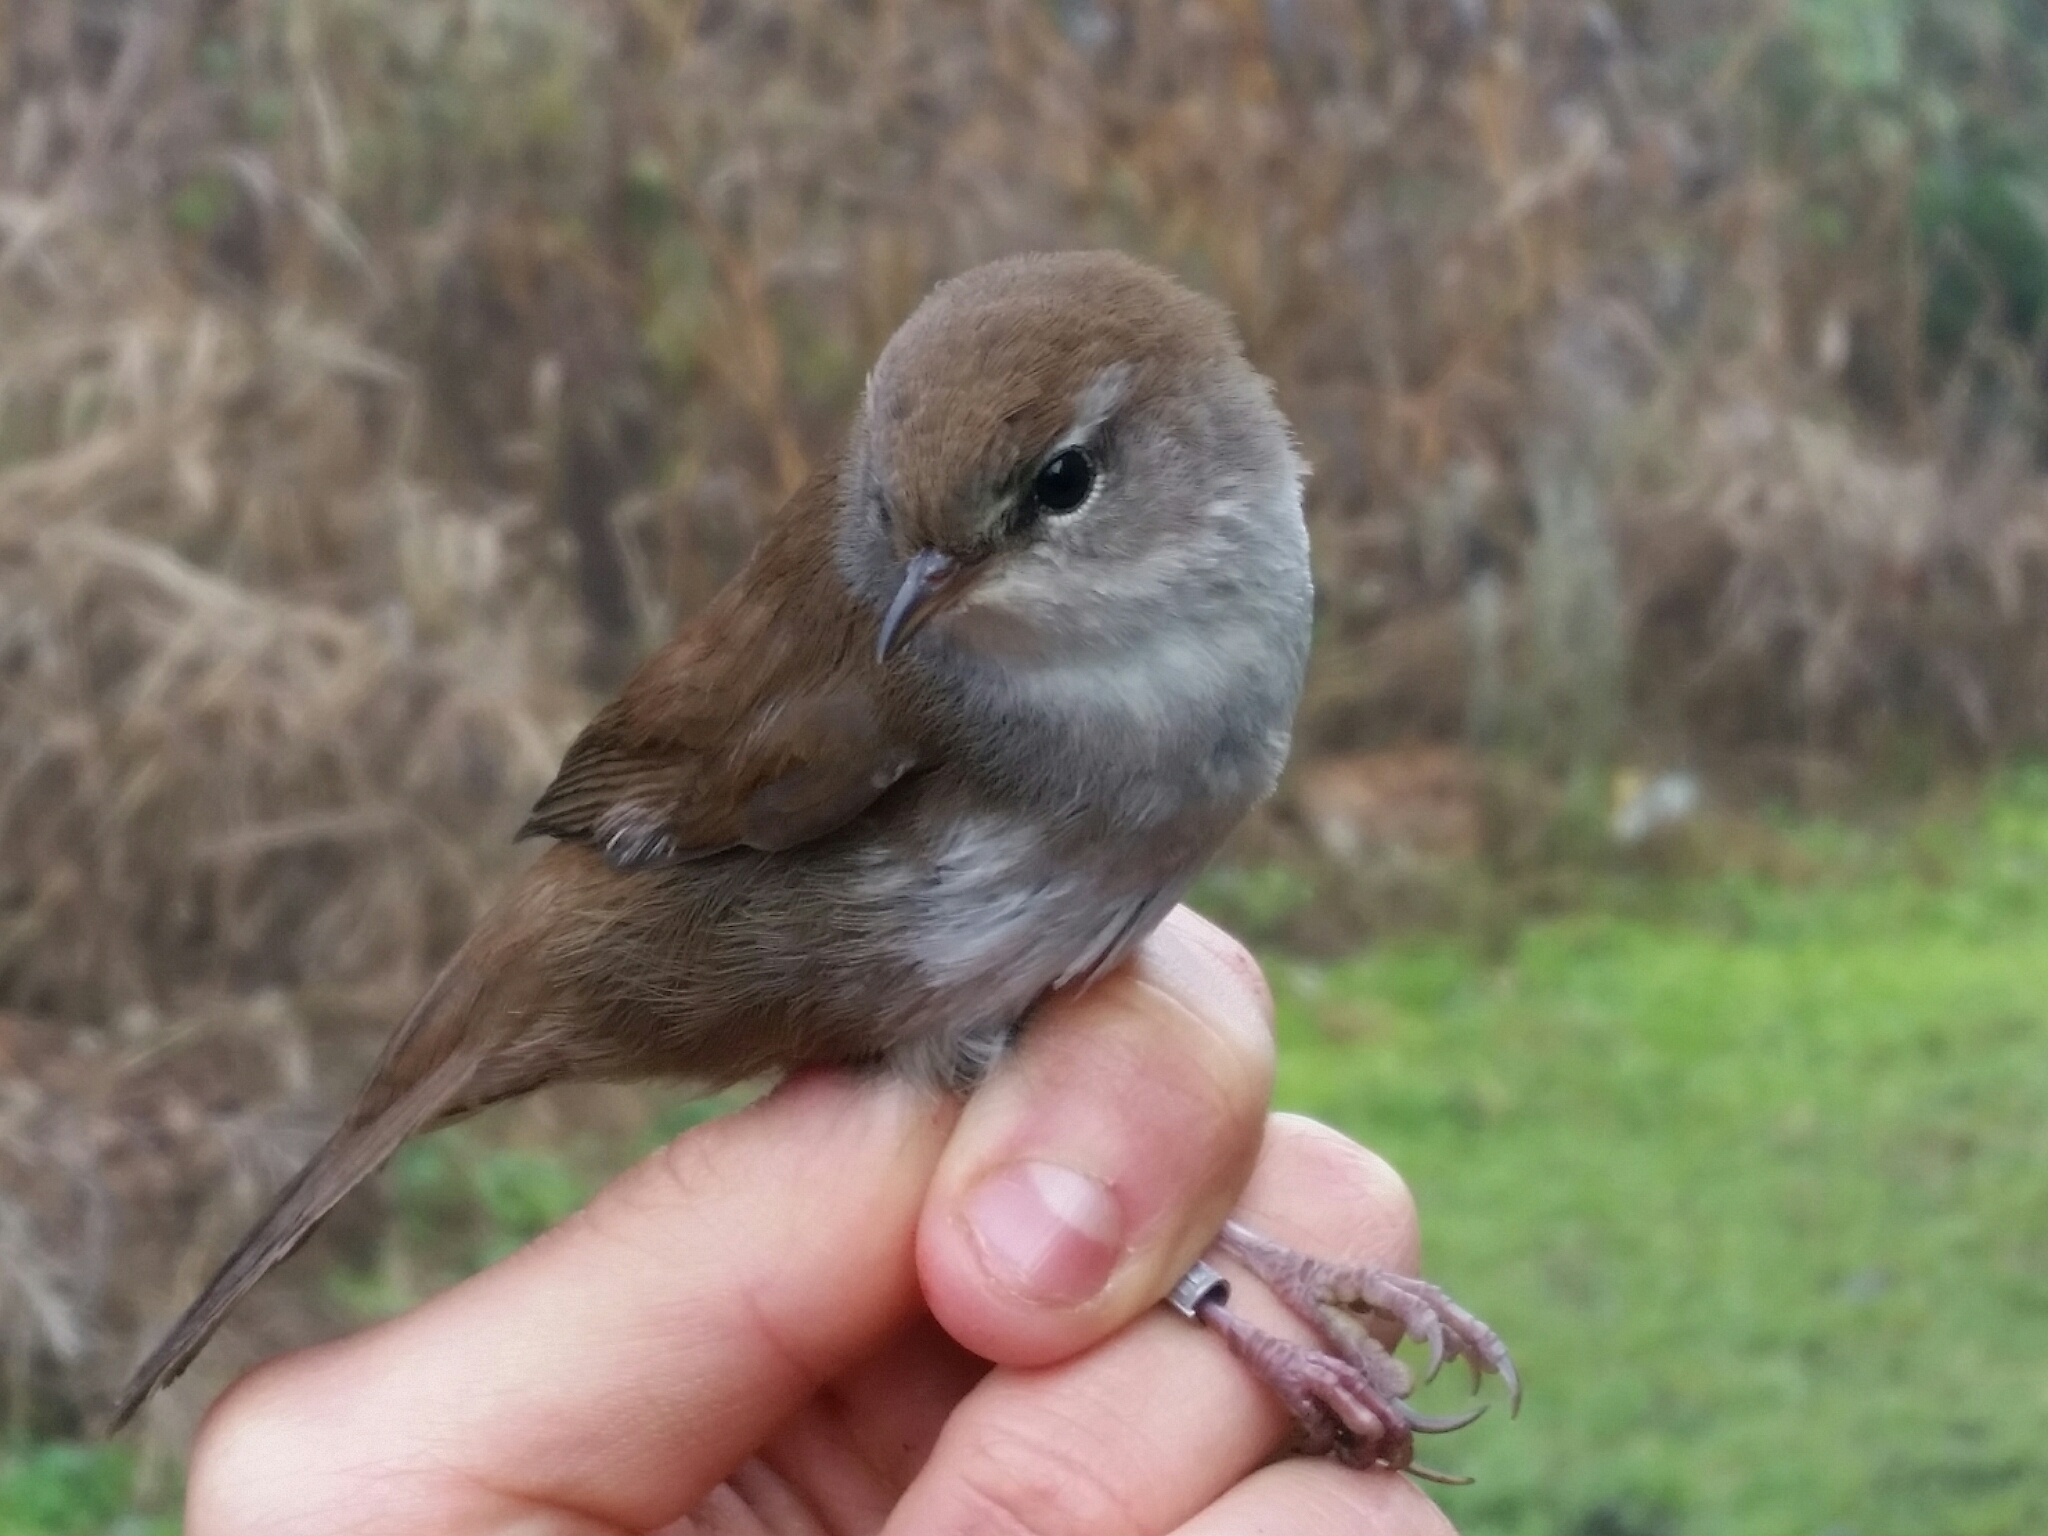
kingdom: Animalia
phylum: Chordata
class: Aves
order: Passeriformes
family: Cettiidae
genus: Cettia
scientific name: Cettia cetti
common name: Cetti's warbler
